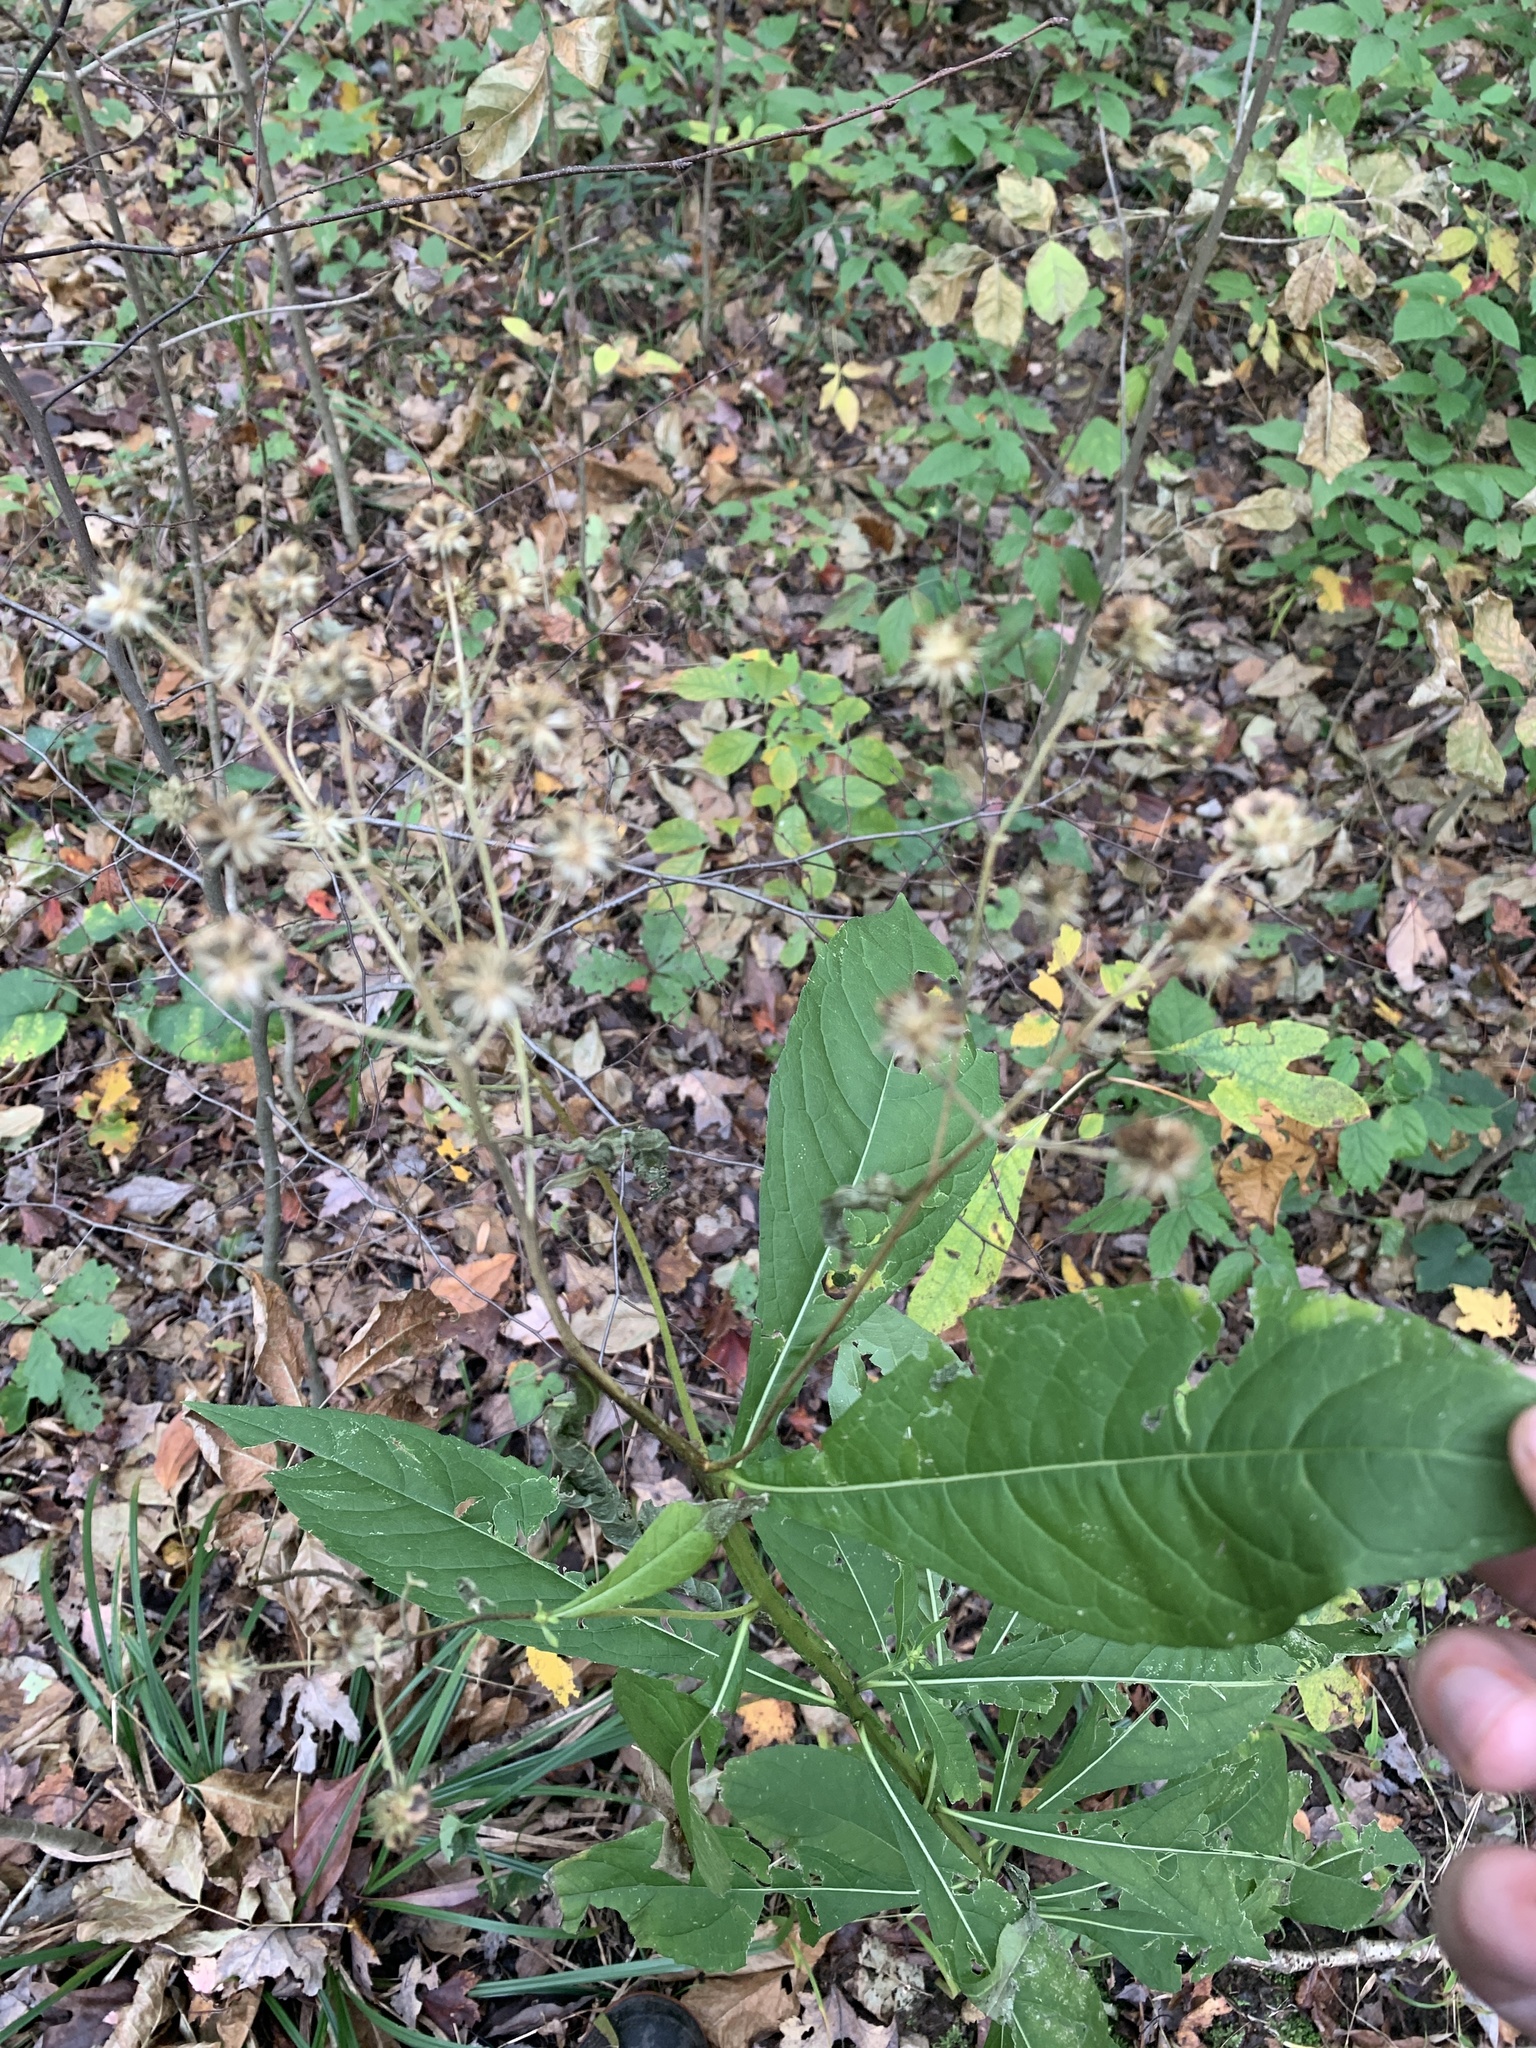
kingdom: Plantae
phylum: Tracheophyta
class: Magnoliopsida
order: Asterales
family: Asteraceae
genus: Verbesina
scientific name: Verbesina alternifolia
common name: Wingstem
